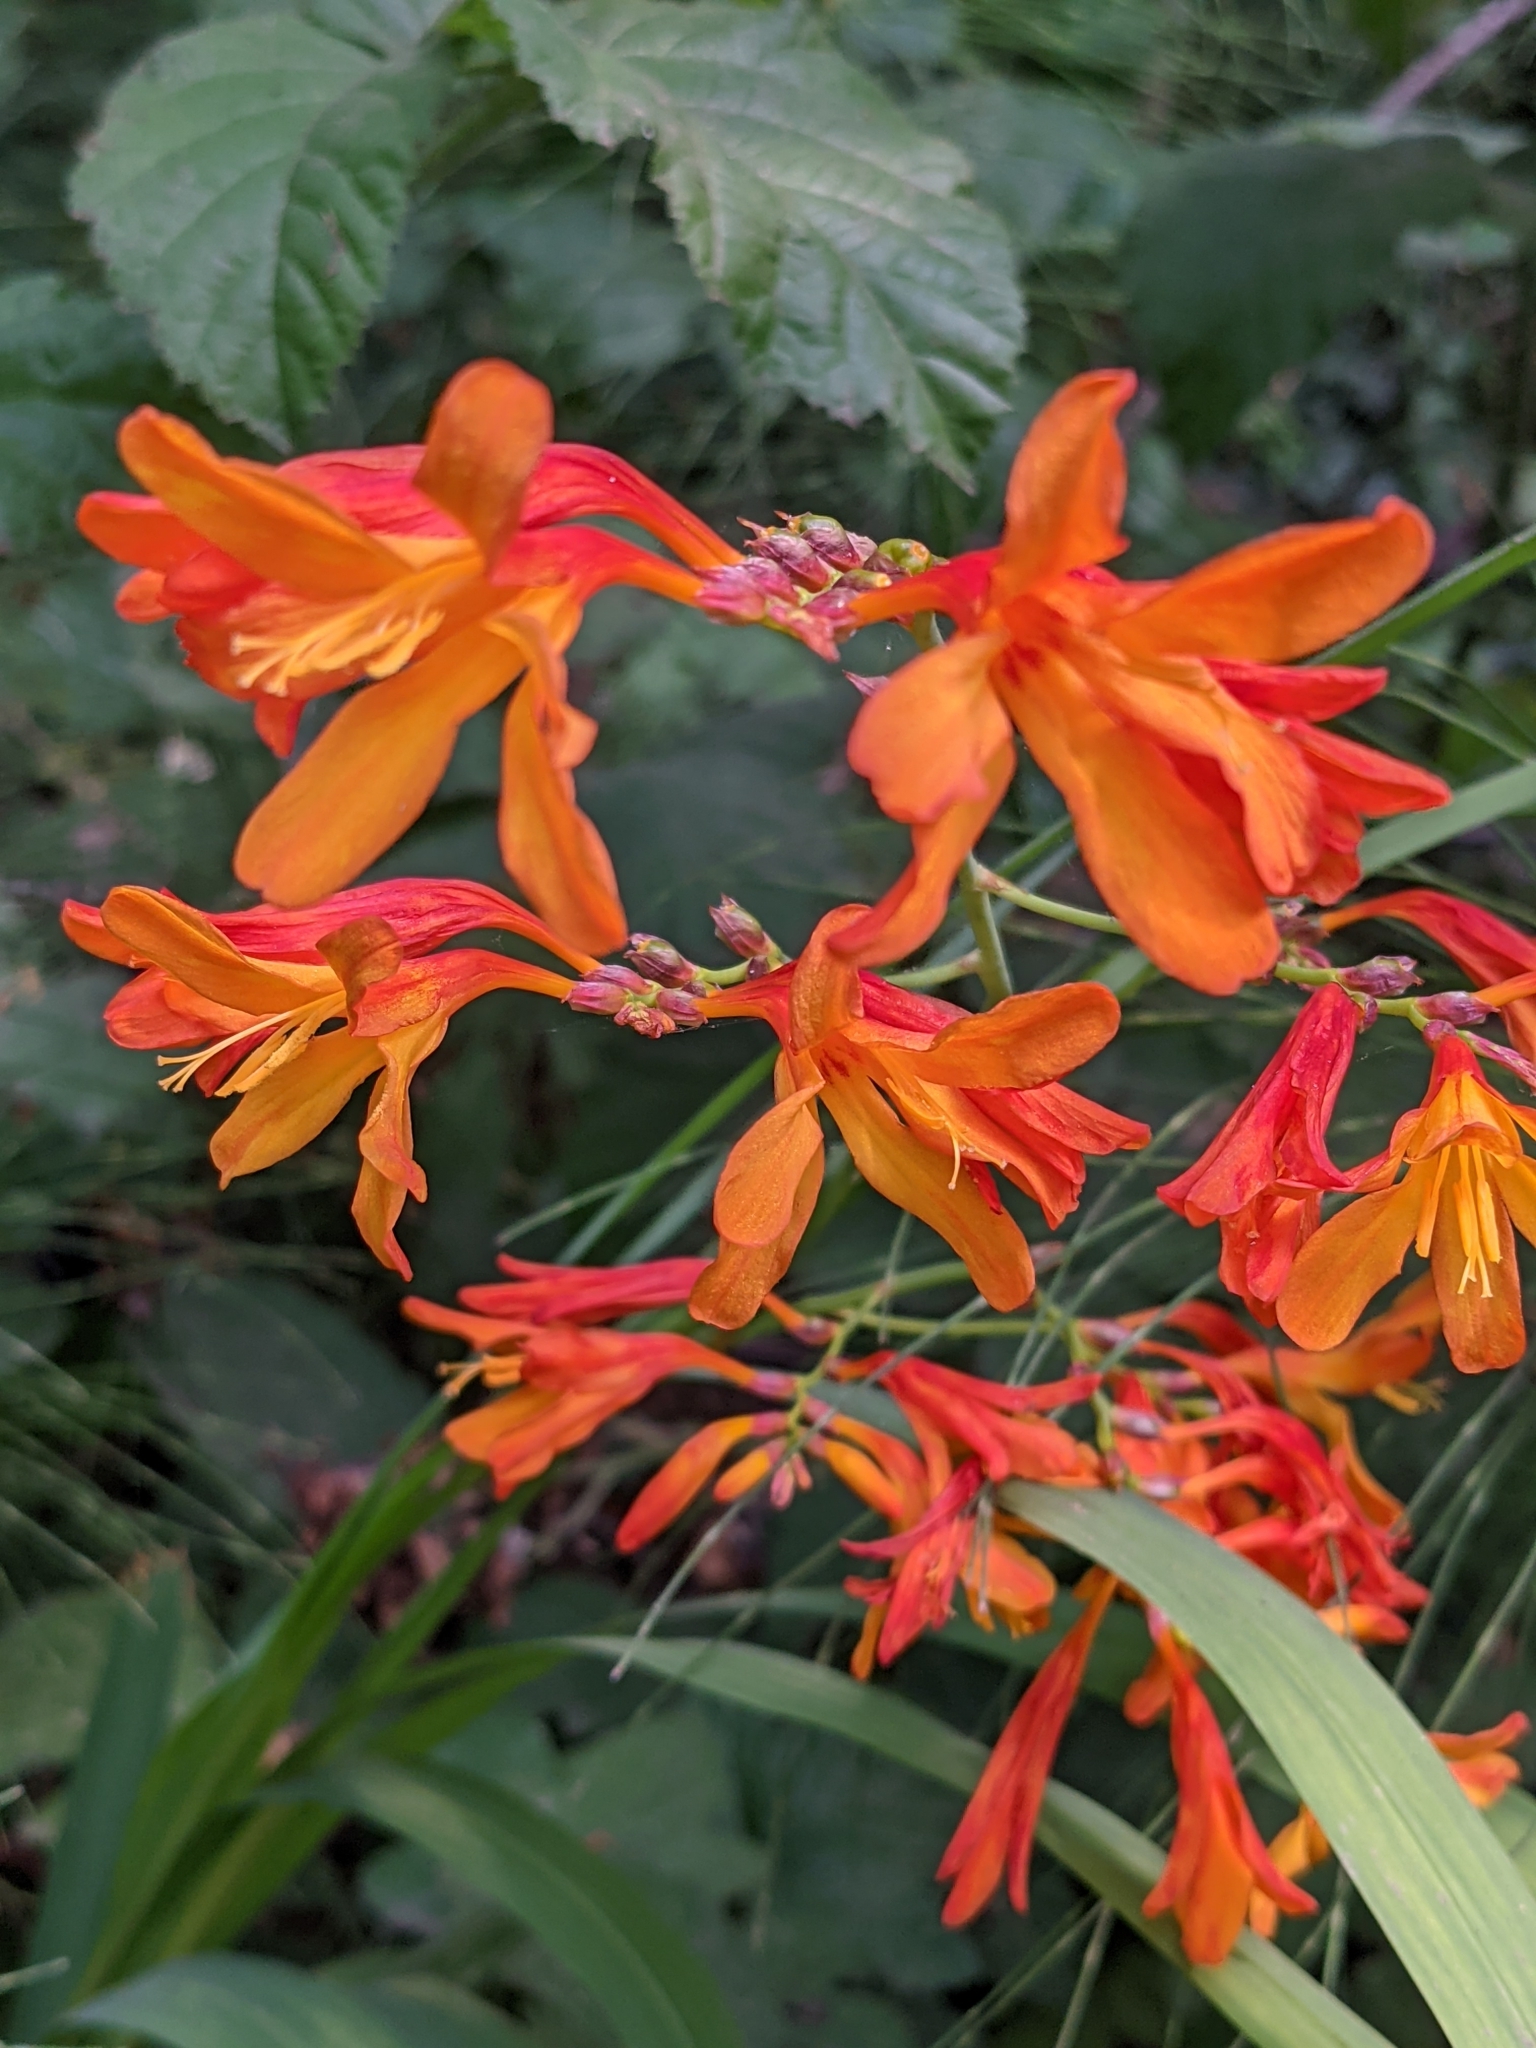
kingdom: Plantae
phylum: Tracheophyta
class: Liliopsida
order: Asparagales
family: Iridaceae
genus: Crocosmia
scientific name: Crocosmia crocosmiiflora
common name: Montbretia
